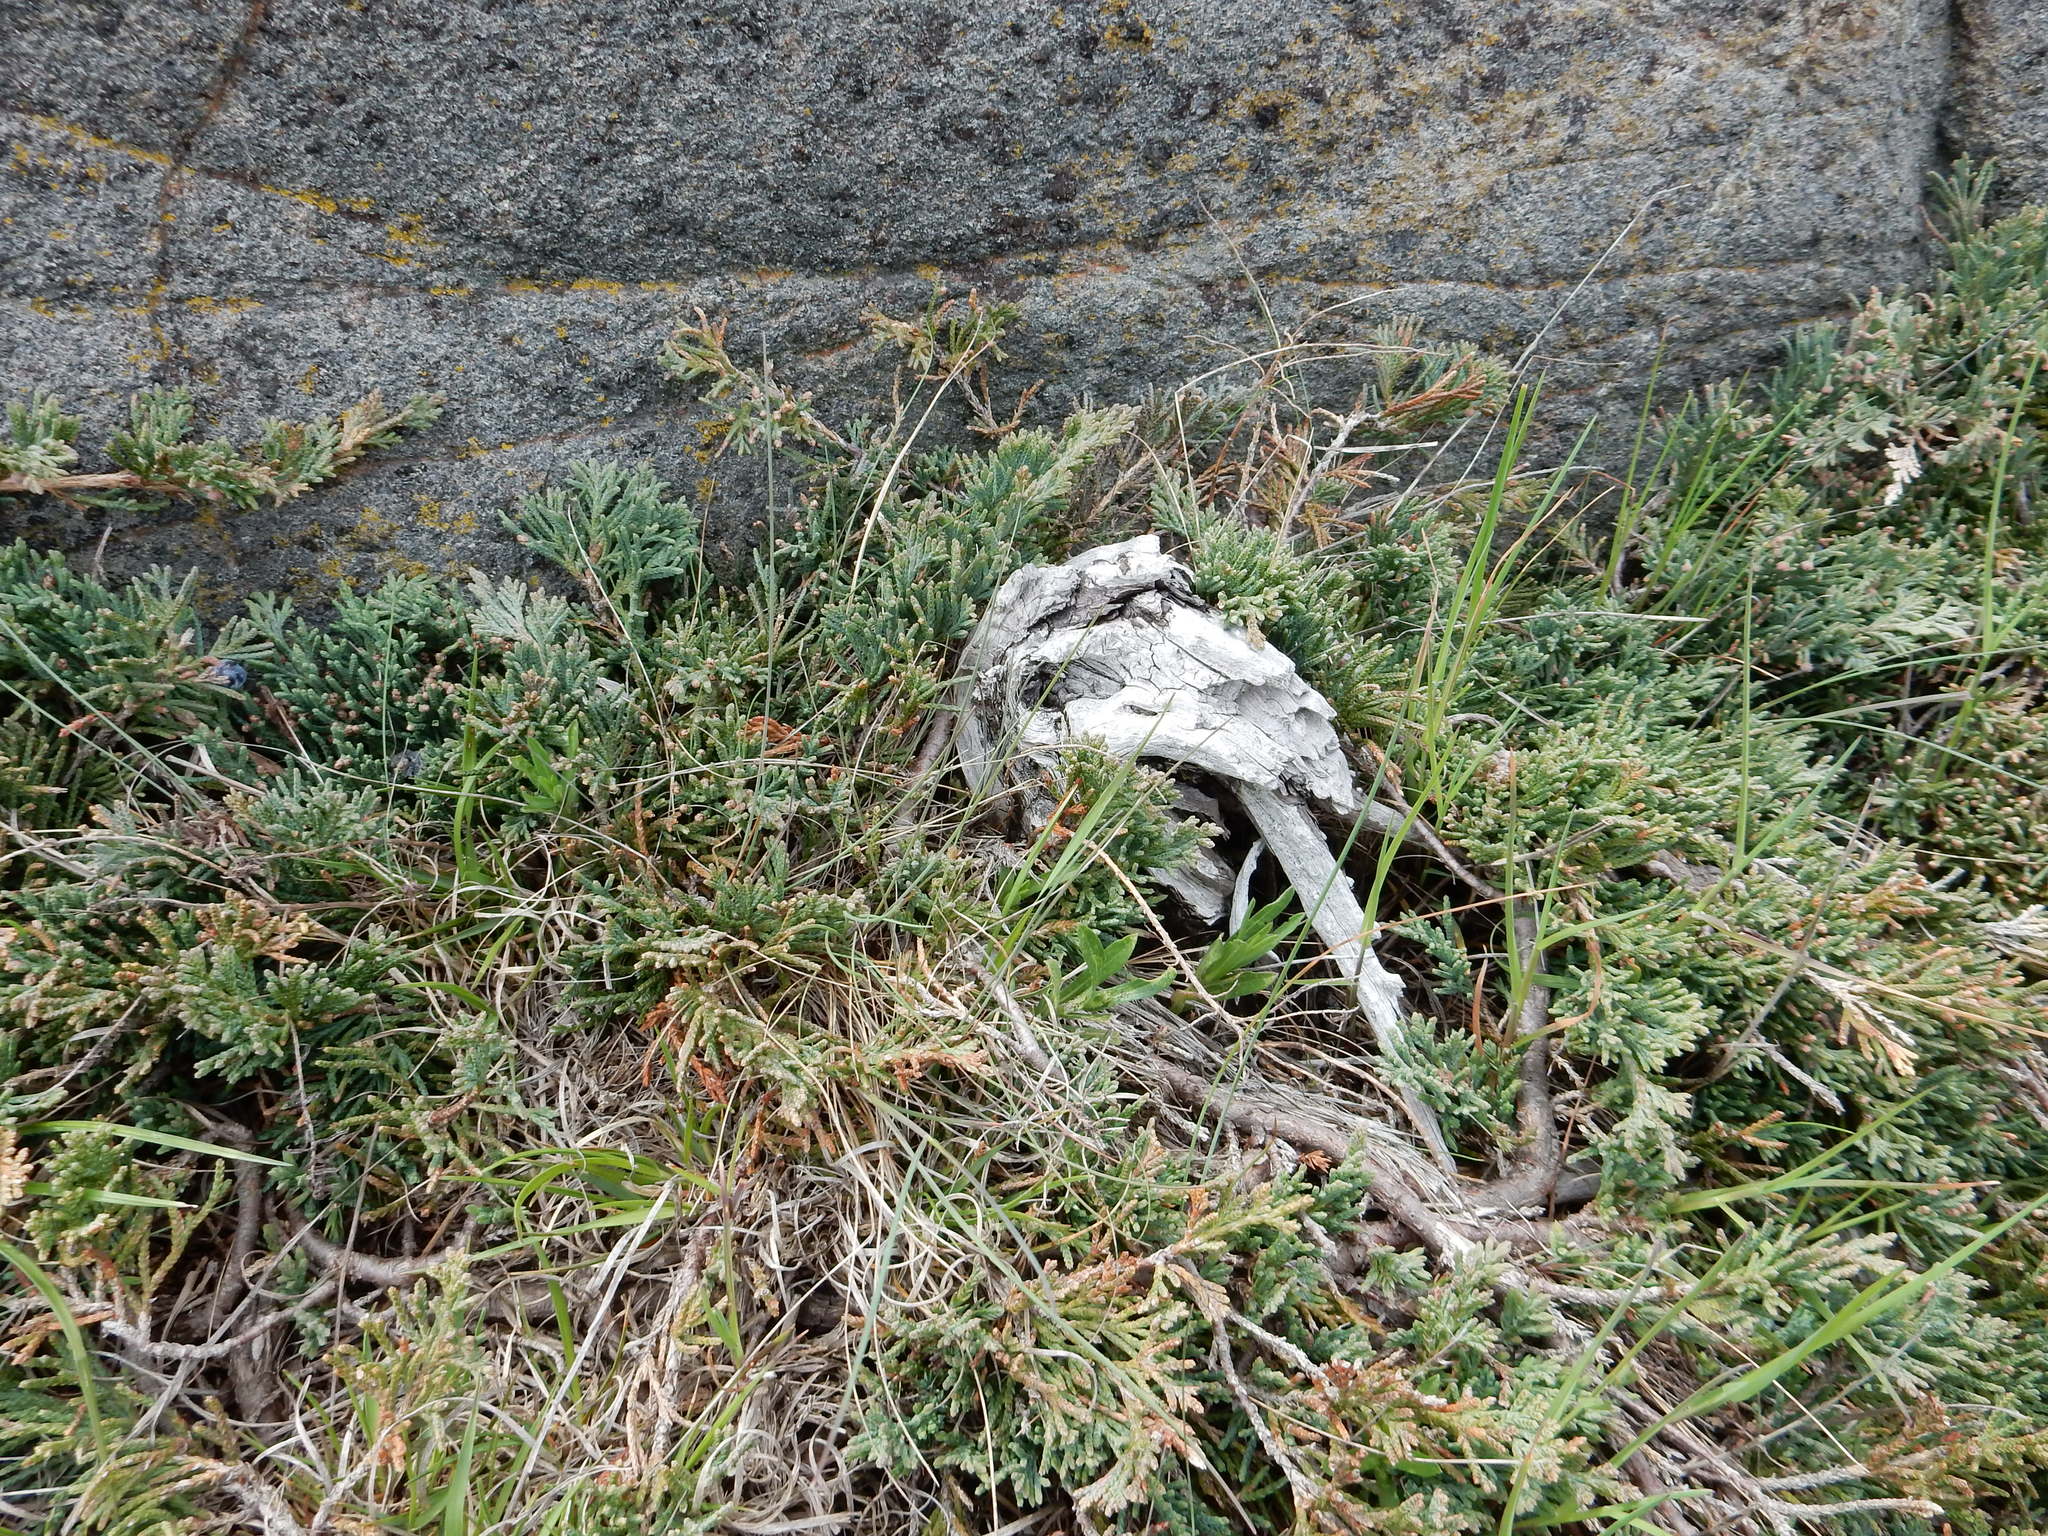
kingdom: Plantae
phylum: Tracheophyta
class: Pinopsida
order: Pinales
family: Cupressaceae
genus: Juniperus
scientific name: Juniperus horizontalis
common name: Creeping juniper
